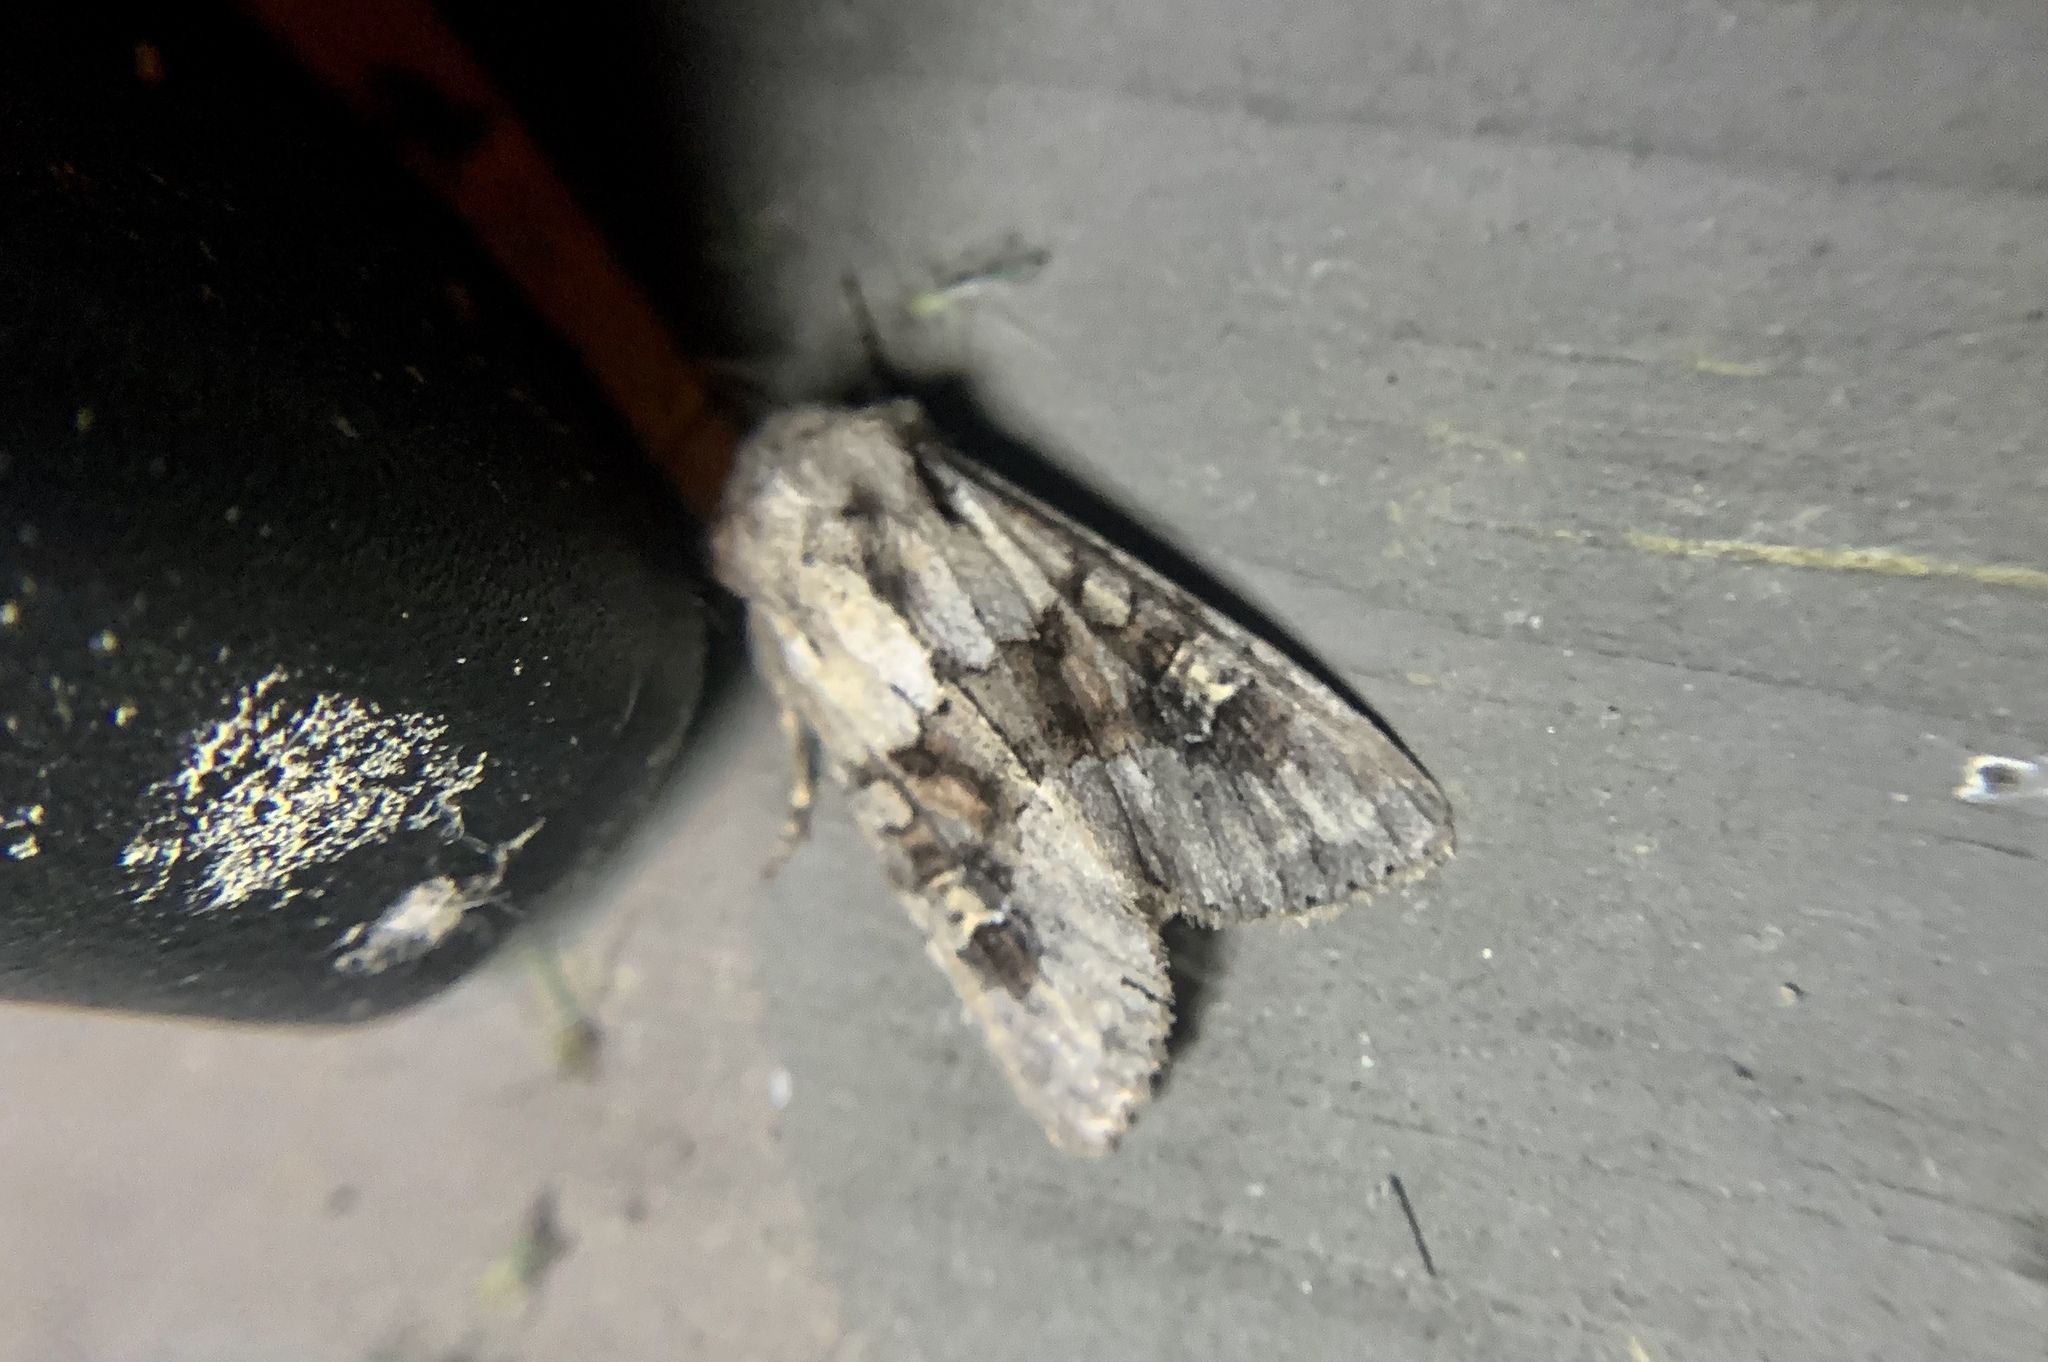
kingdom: Animalia
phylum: Arthropoda
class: Insecta
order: Lepidoptera
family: Noctuidae
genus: Apamea
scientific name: Apamea sordens
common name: Rustic shoulder-knot
